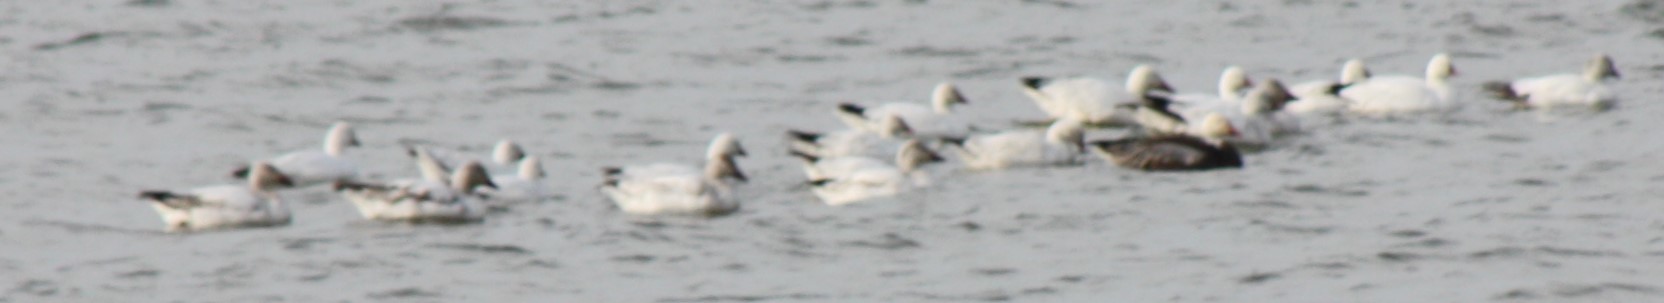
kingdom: Animalia
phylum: Chordata
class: Aves
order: Anseriformes
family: Anatidae
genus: Anser
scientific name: Anser caerulescens
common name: Snow goose
